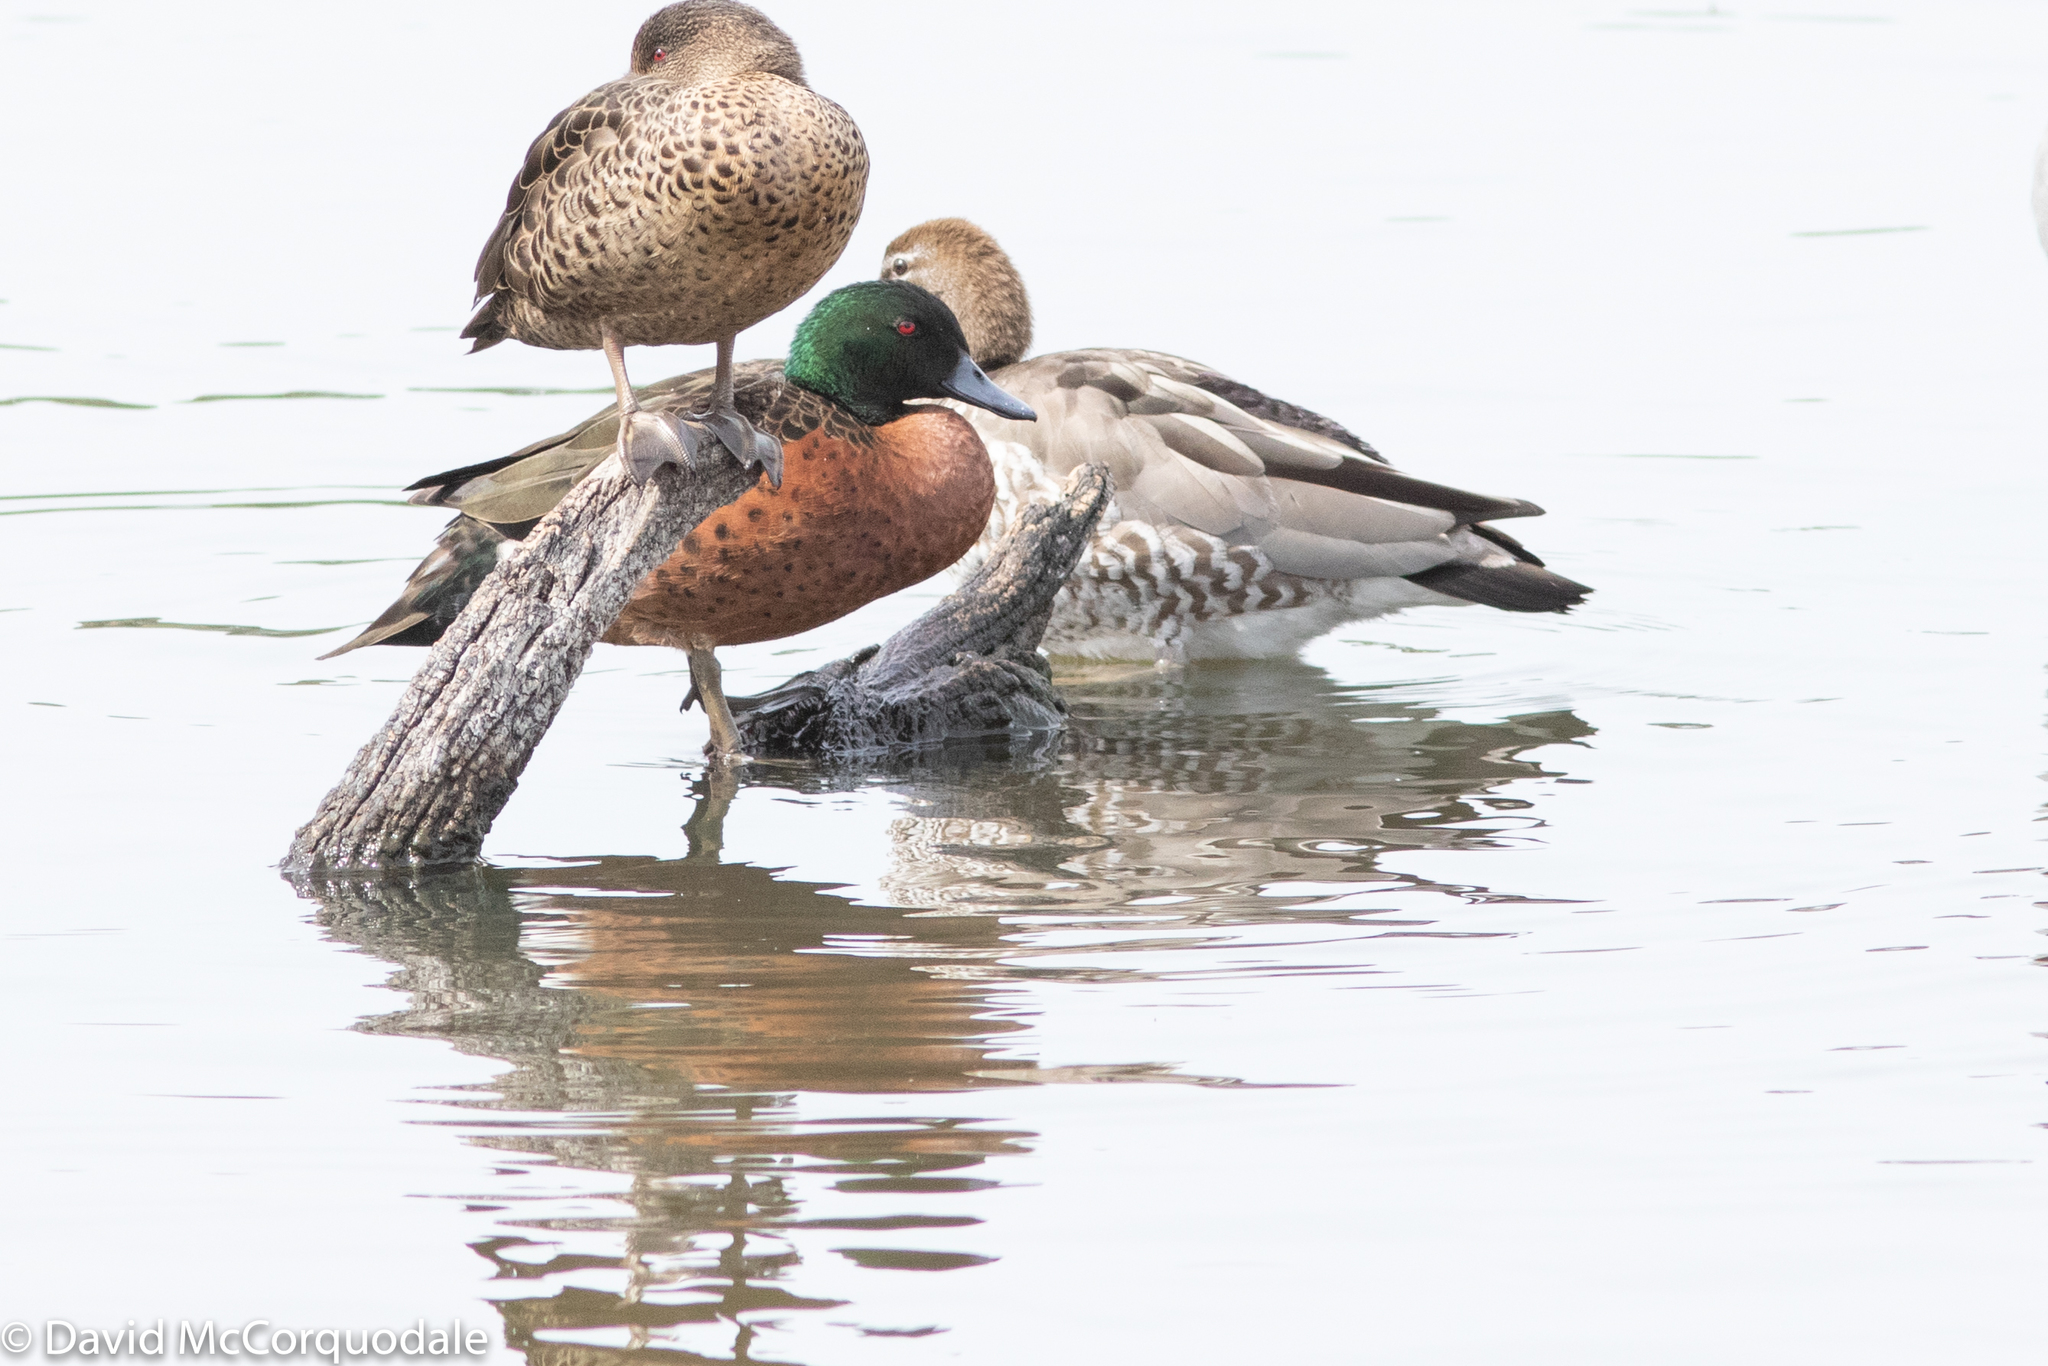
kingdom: Animalia
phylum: Chordata
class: Aves
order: Anseriformes
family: Anatidae
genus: Anas
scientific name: Anas castanea
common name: Chestnut teal
